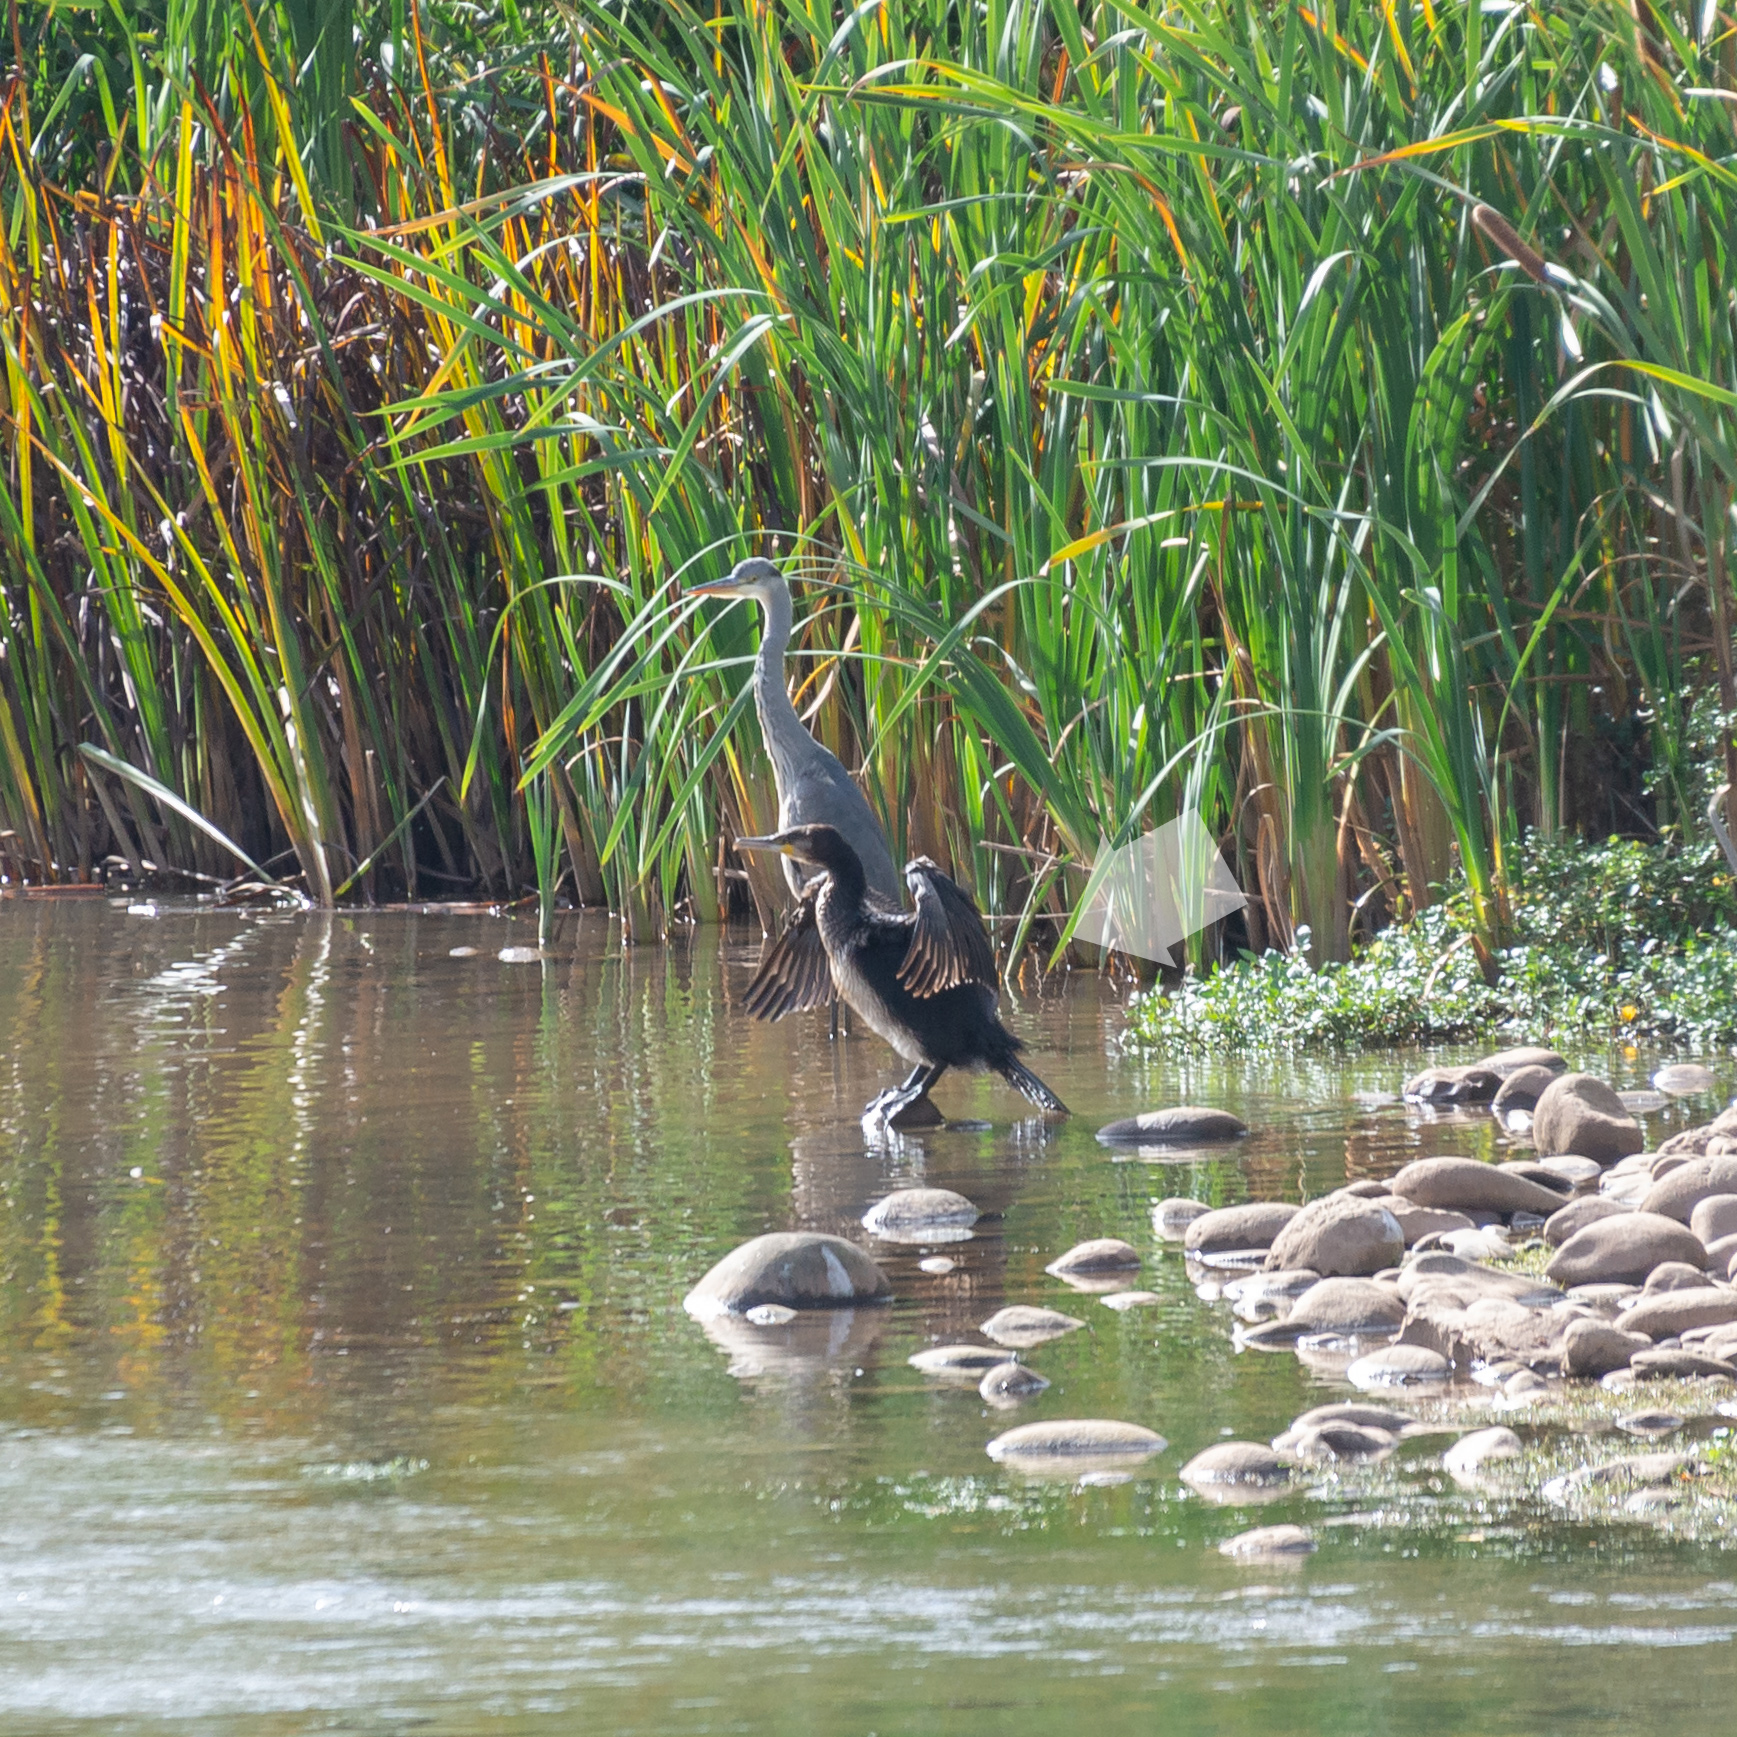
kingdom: Animalia
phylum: Chordata
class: Aves
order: Suliformes
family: Phalacrocoracidae
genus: Phalacrocorax
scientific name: Phalacrocorax carbo
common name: Great cormorant
